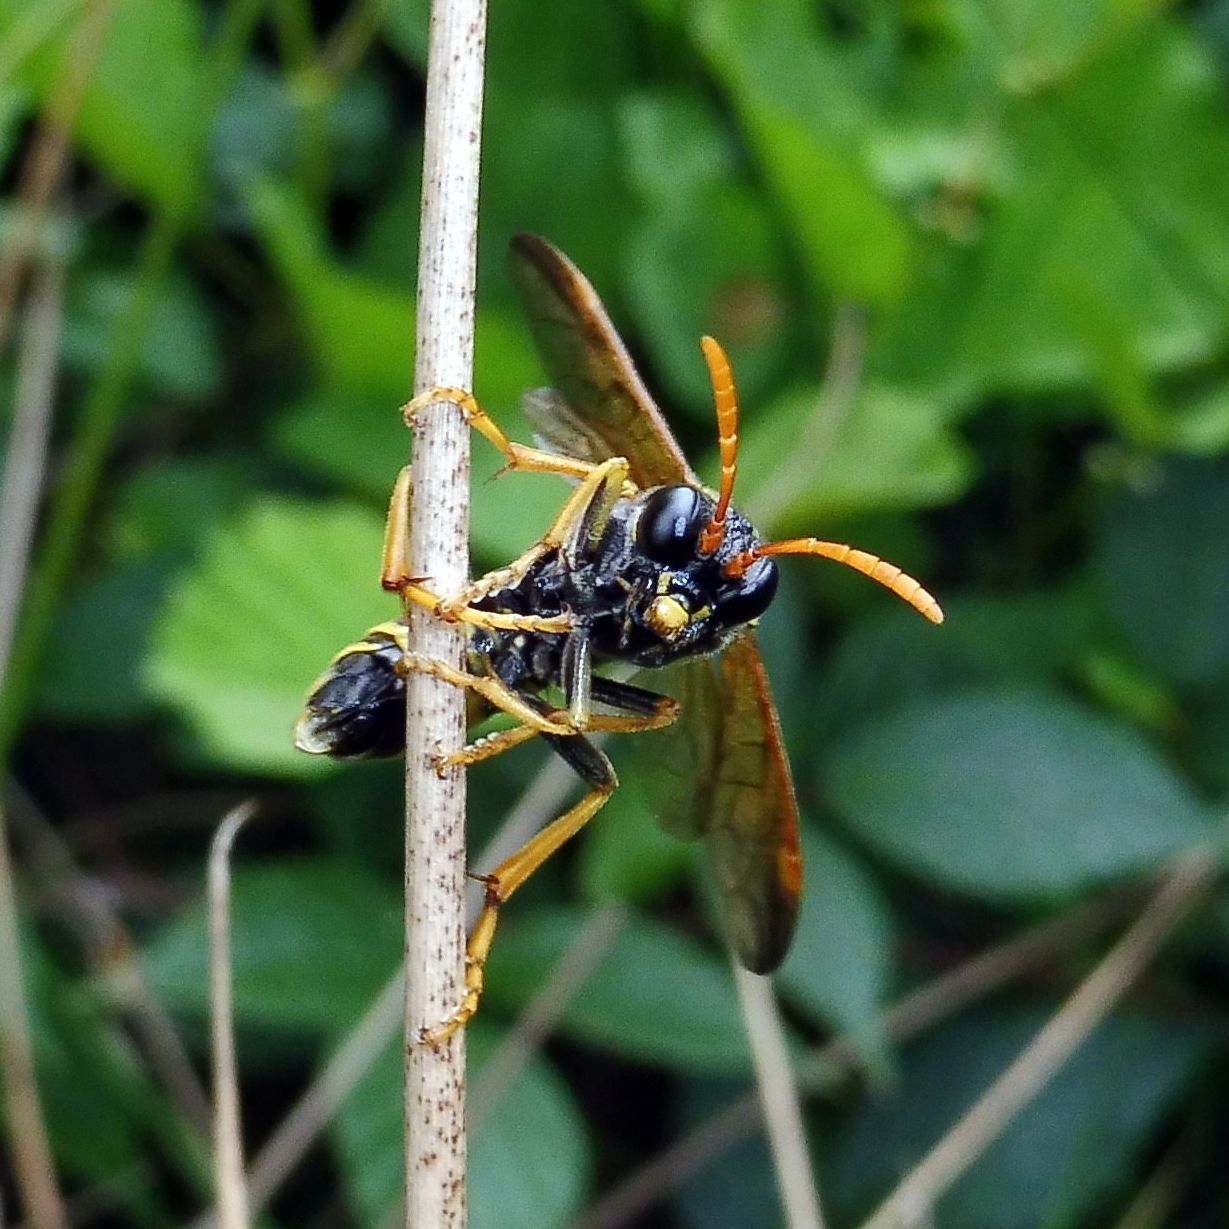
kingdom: Animalia
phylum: Arthropoda
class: Insecta
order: Hymenoptera
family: Tenthredinidae
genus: Tenthredo
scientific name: Tenthredo scrophulariae
